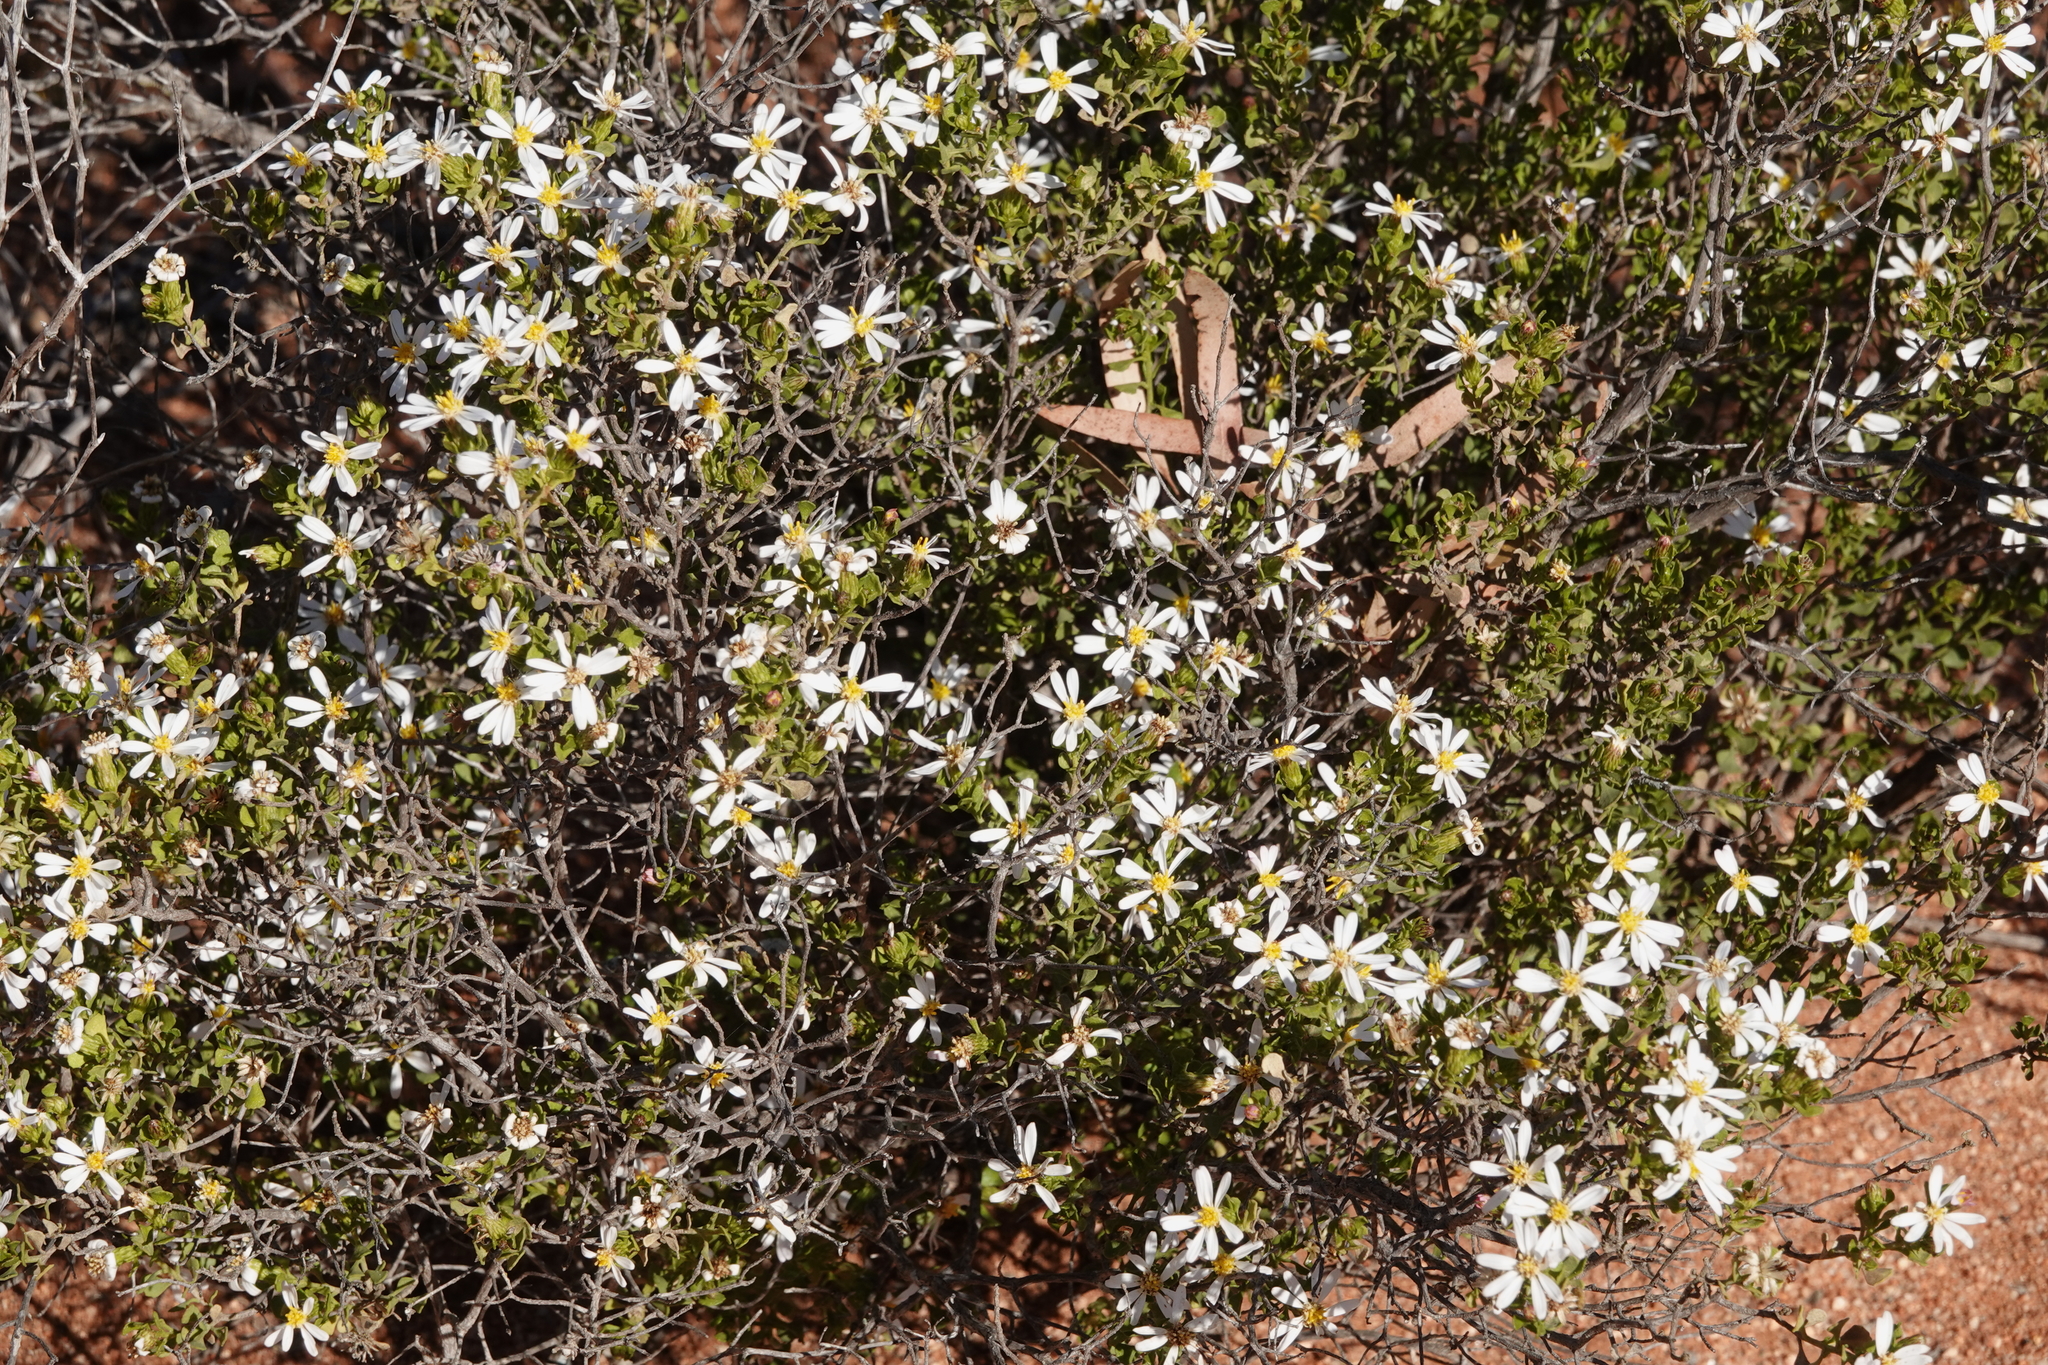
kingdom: Plantae
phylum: Tracheophyta
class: Magnoliopsida
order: Asterales
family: Asteraceae
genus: Walsholaria
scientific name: Walsholaria calcarea
